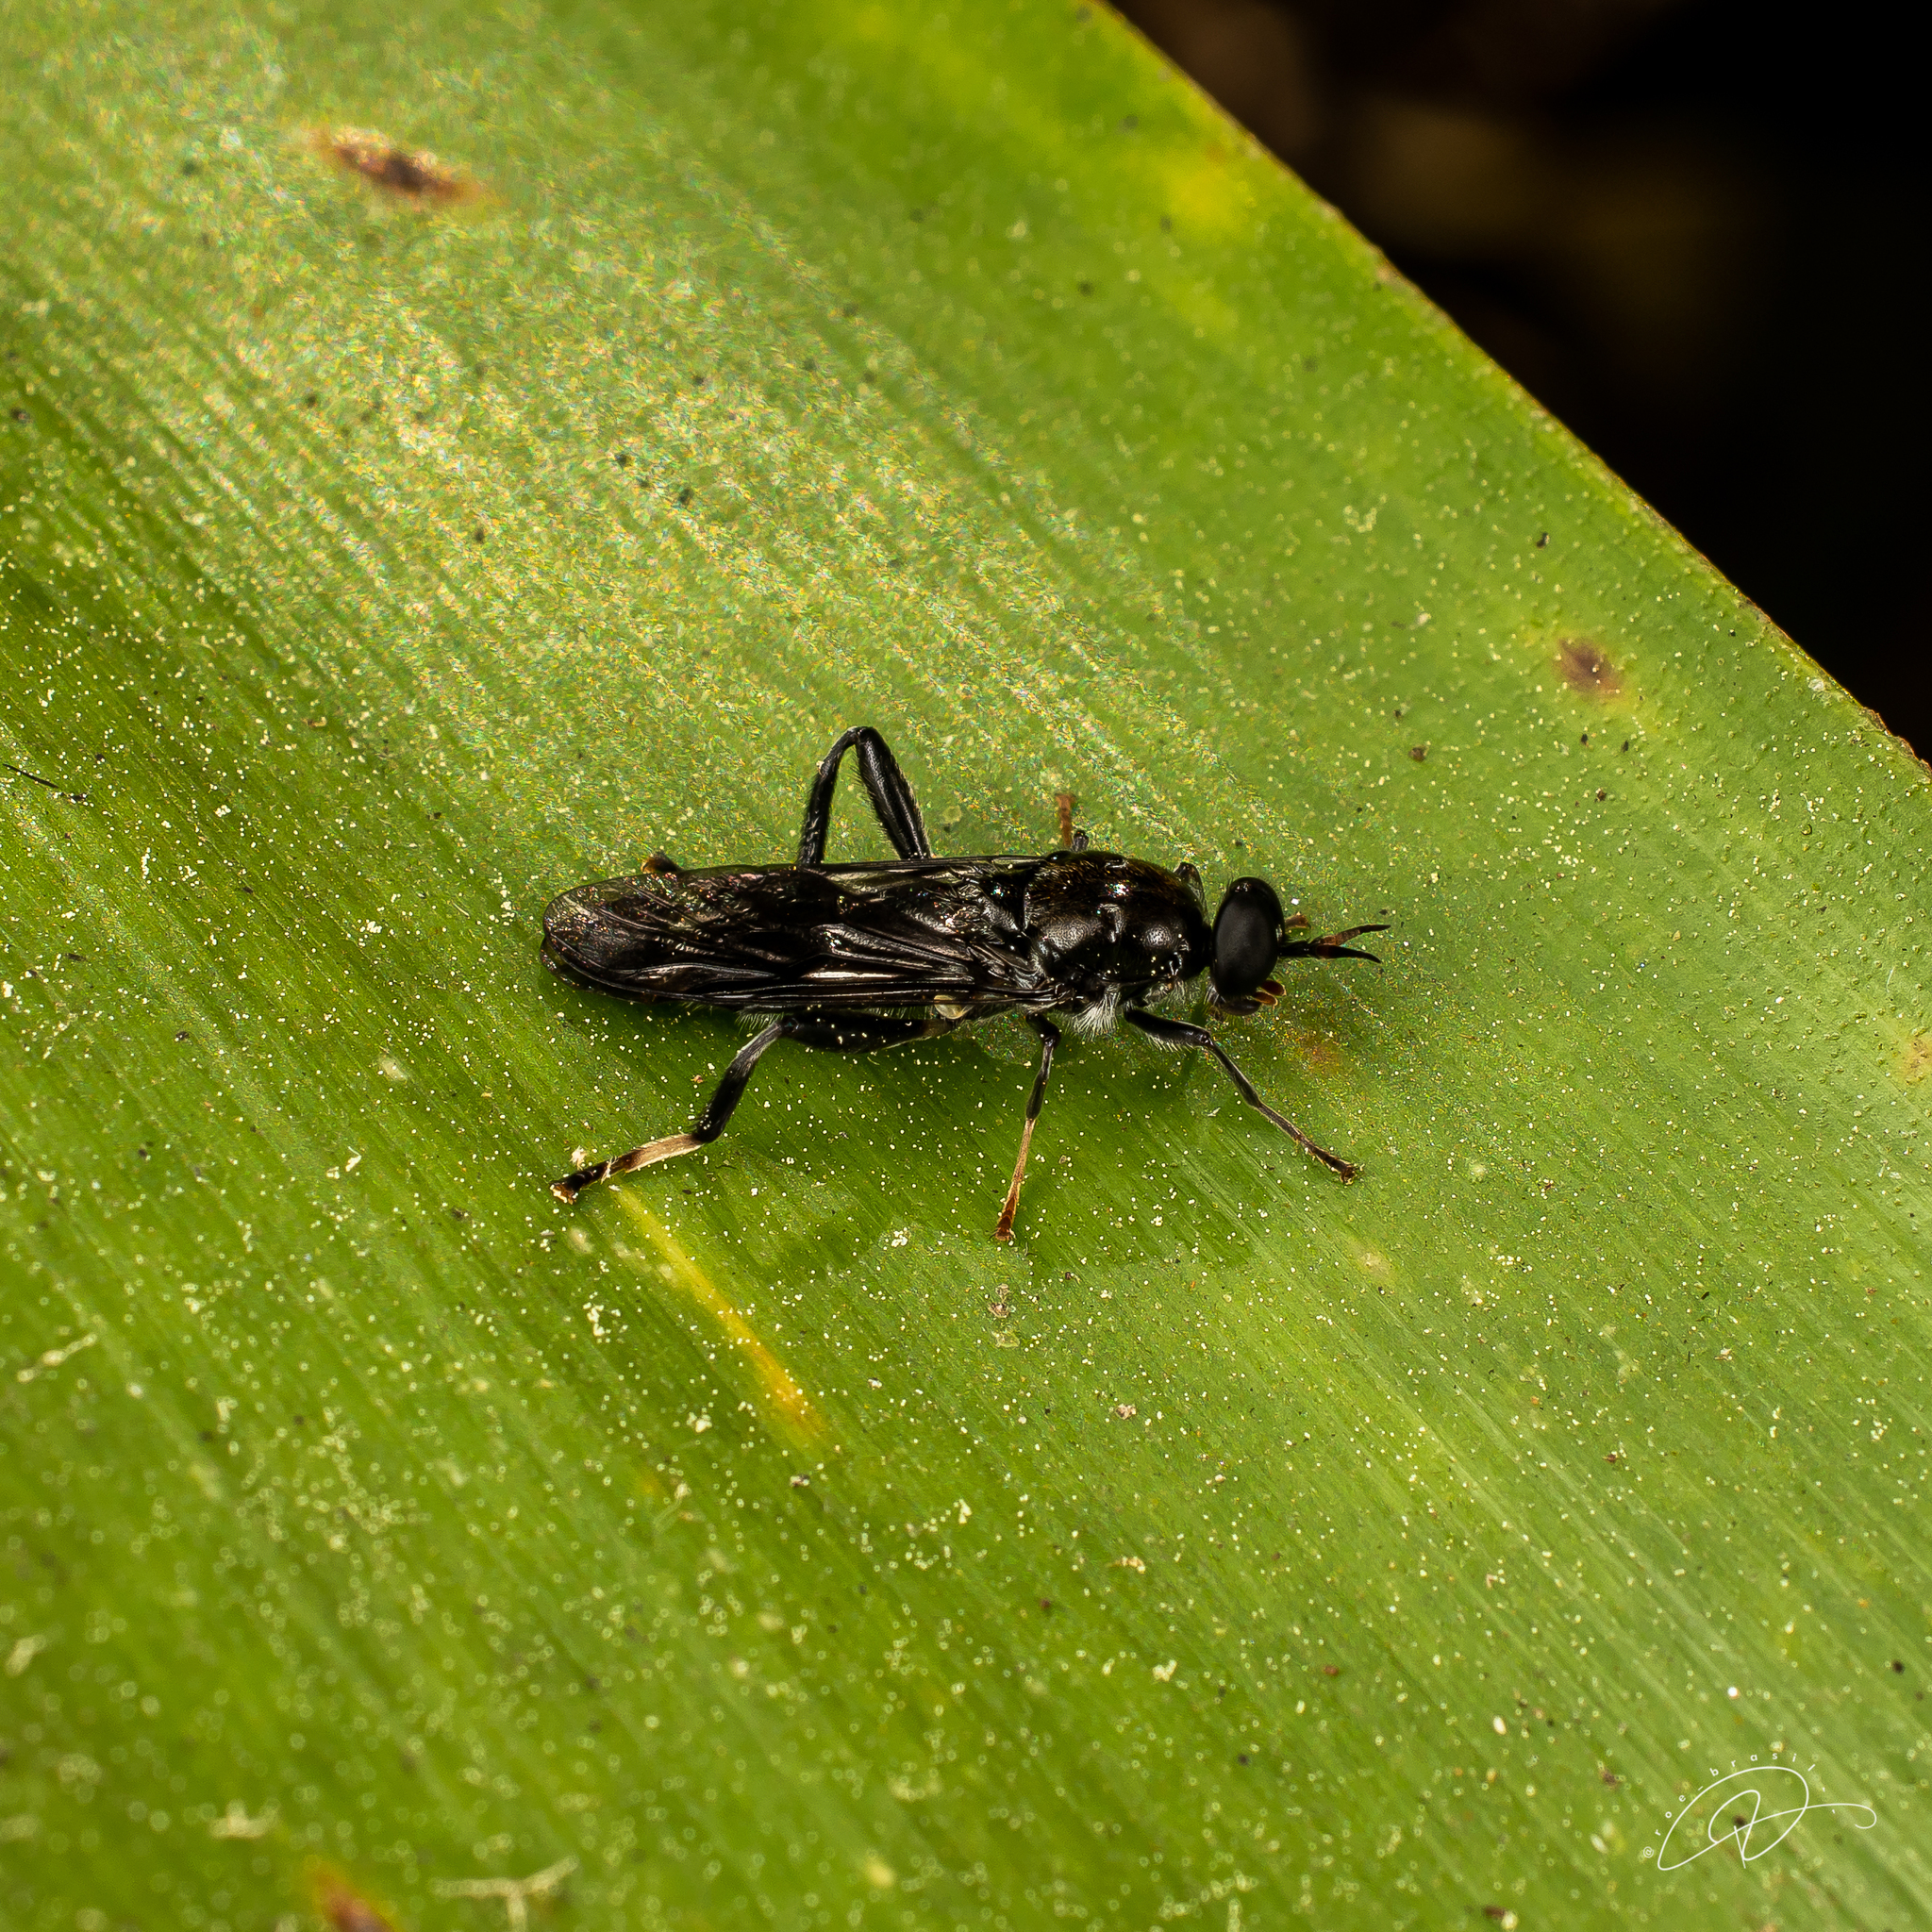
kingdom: Animalia
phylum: Arthropoda
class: Insecta
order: Diptera
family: Stratiomyidae
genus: Archistratiomys
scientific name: Archistratiomys rufipalpis
